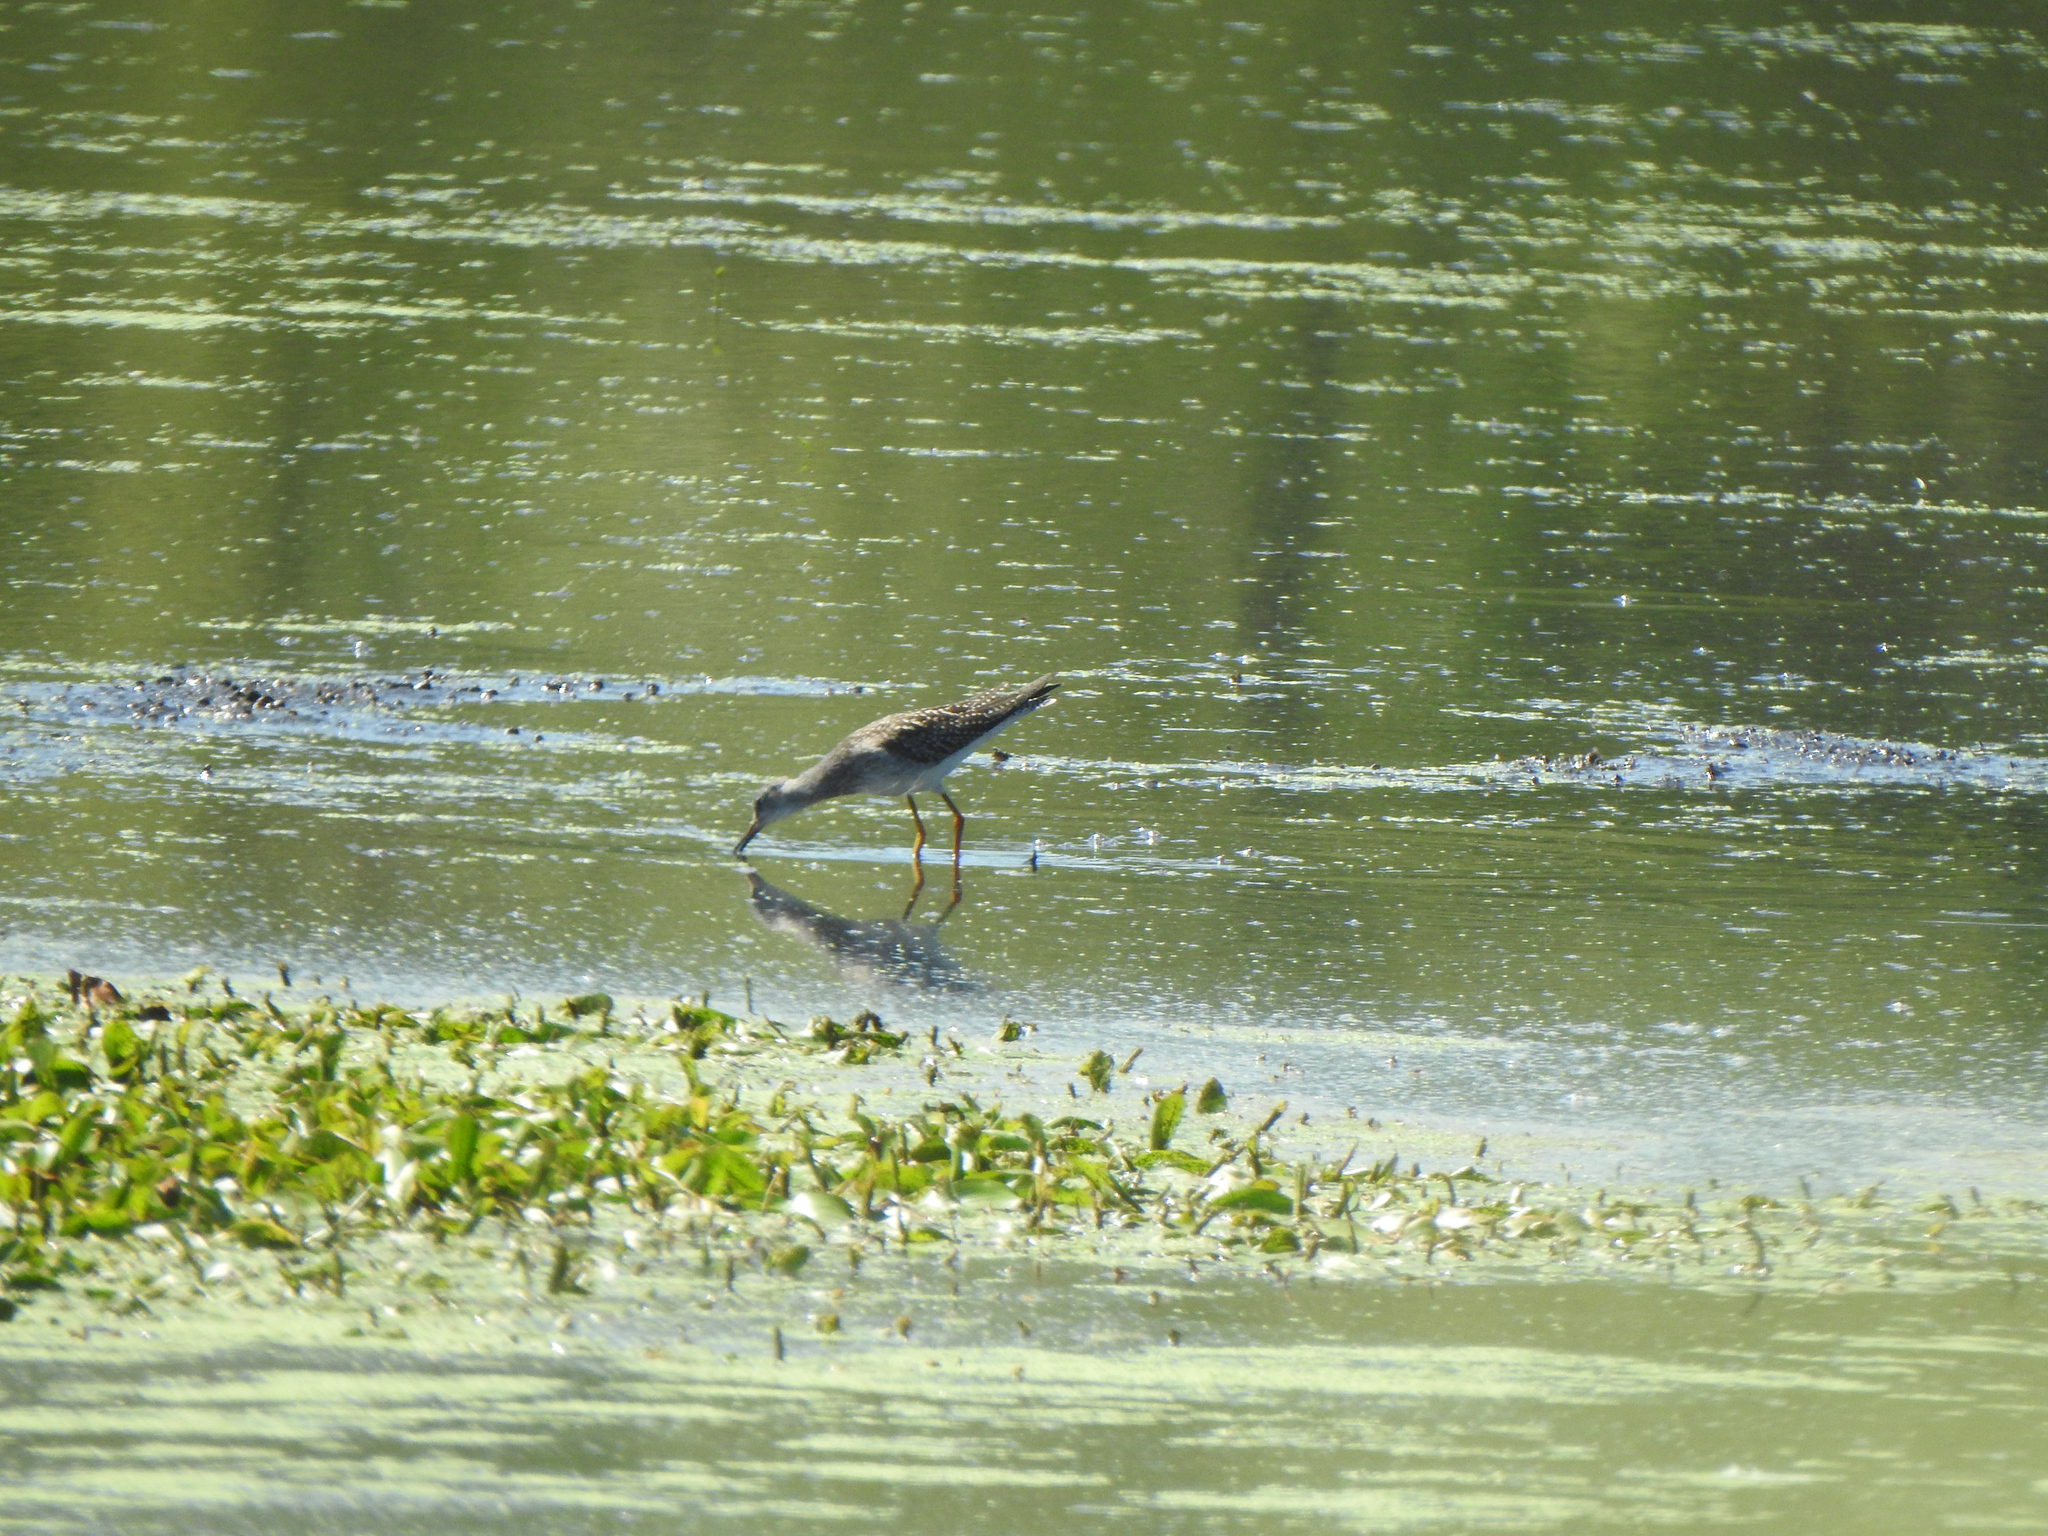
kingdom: Animalia
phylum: Chordata
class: Aves
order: Charadriiformes
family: Scolopacidae
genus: Tringa
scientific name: Tringa flavipes
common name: Lesser yellowlegs
